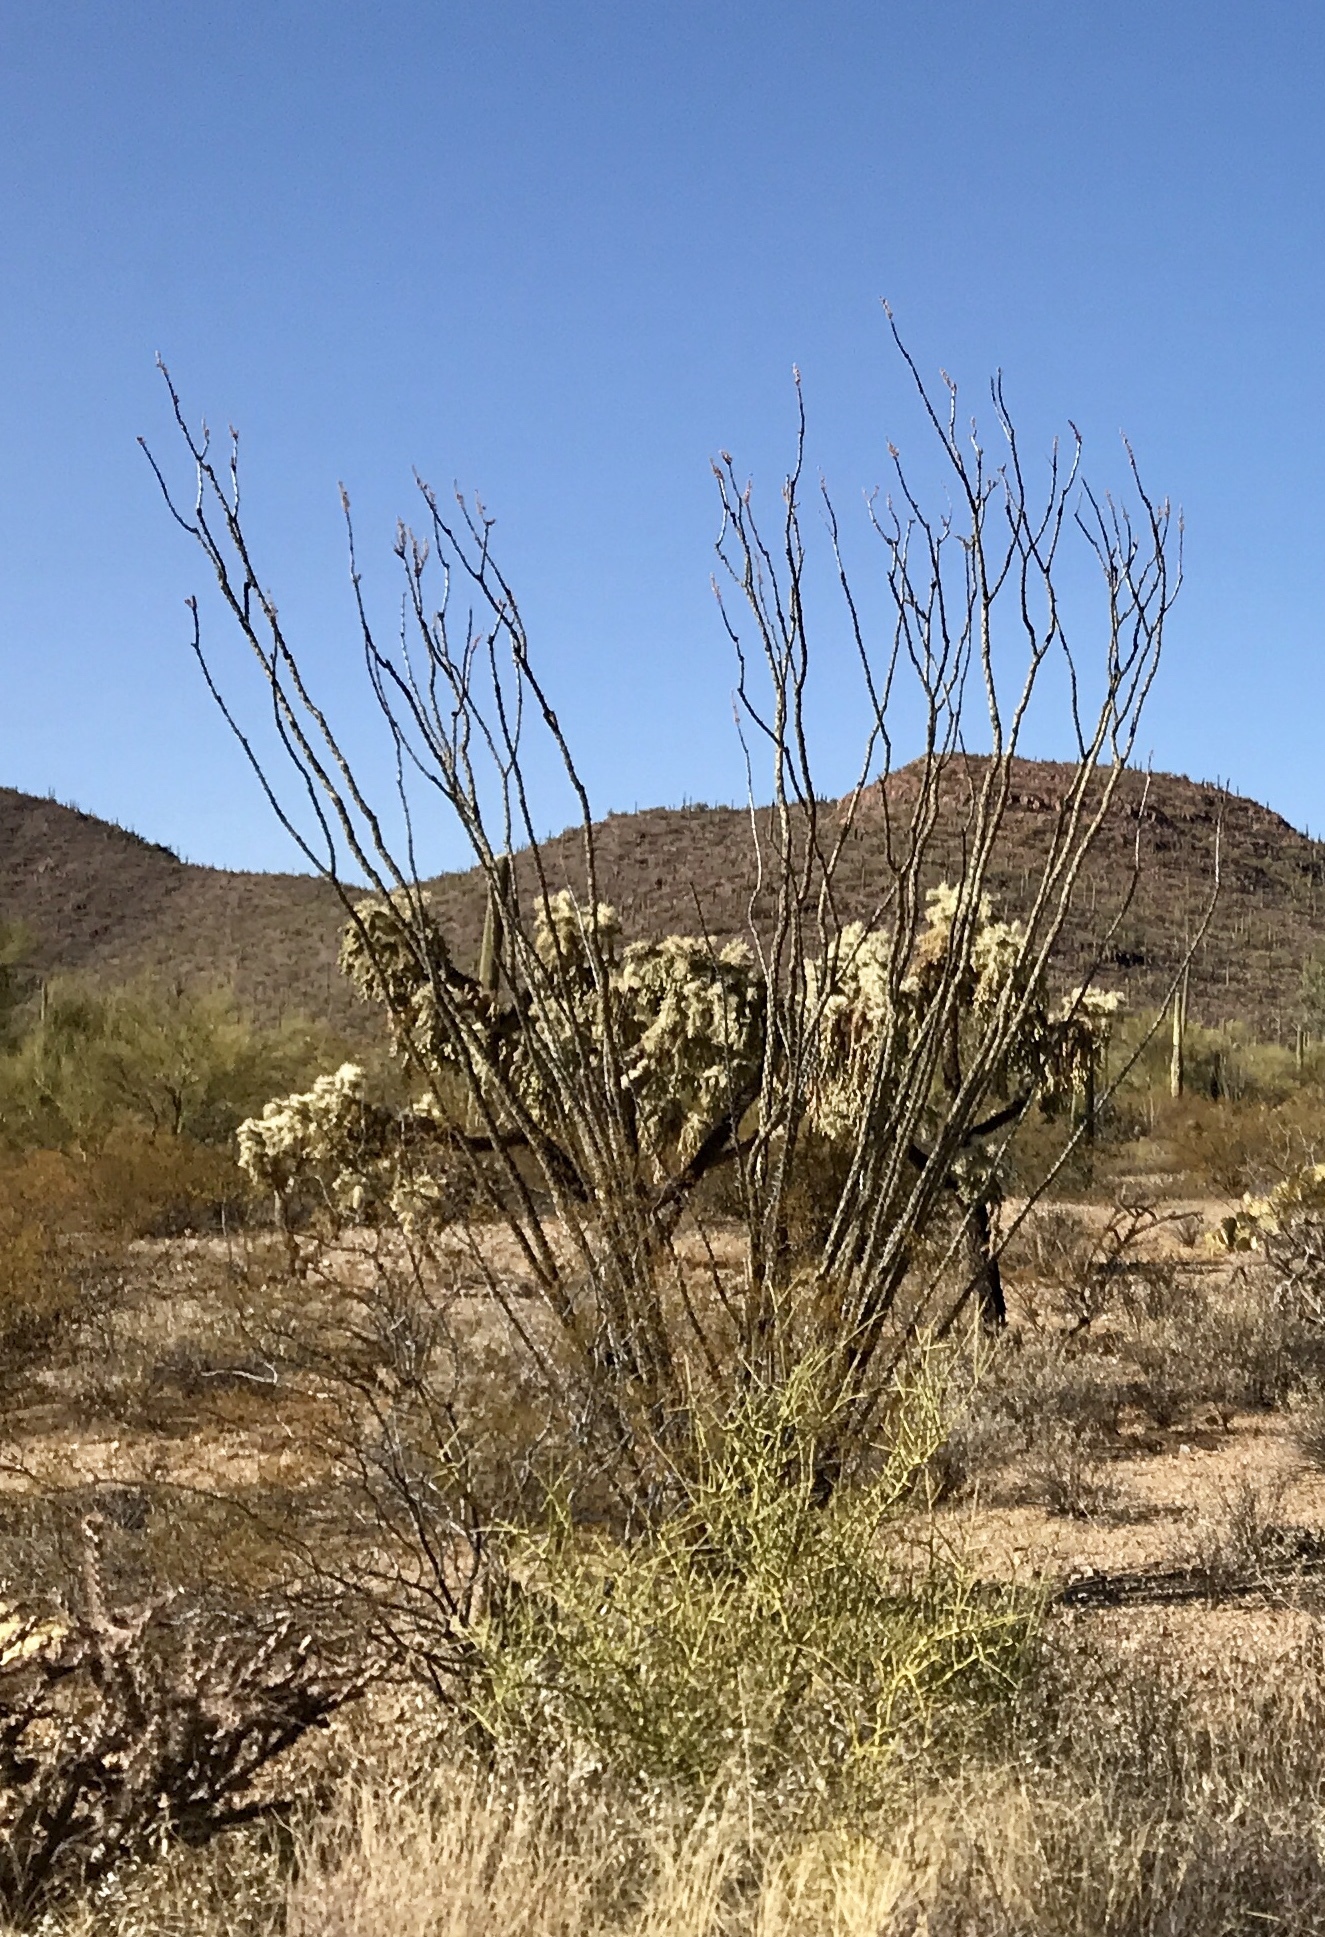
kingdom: Plantae
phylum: Tracheophyta
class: Magnoliopsida
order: Ericales
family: Fouquieriaceae
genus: Fouquieria
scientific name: Fouquieria splendens
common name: Vine-cactus
